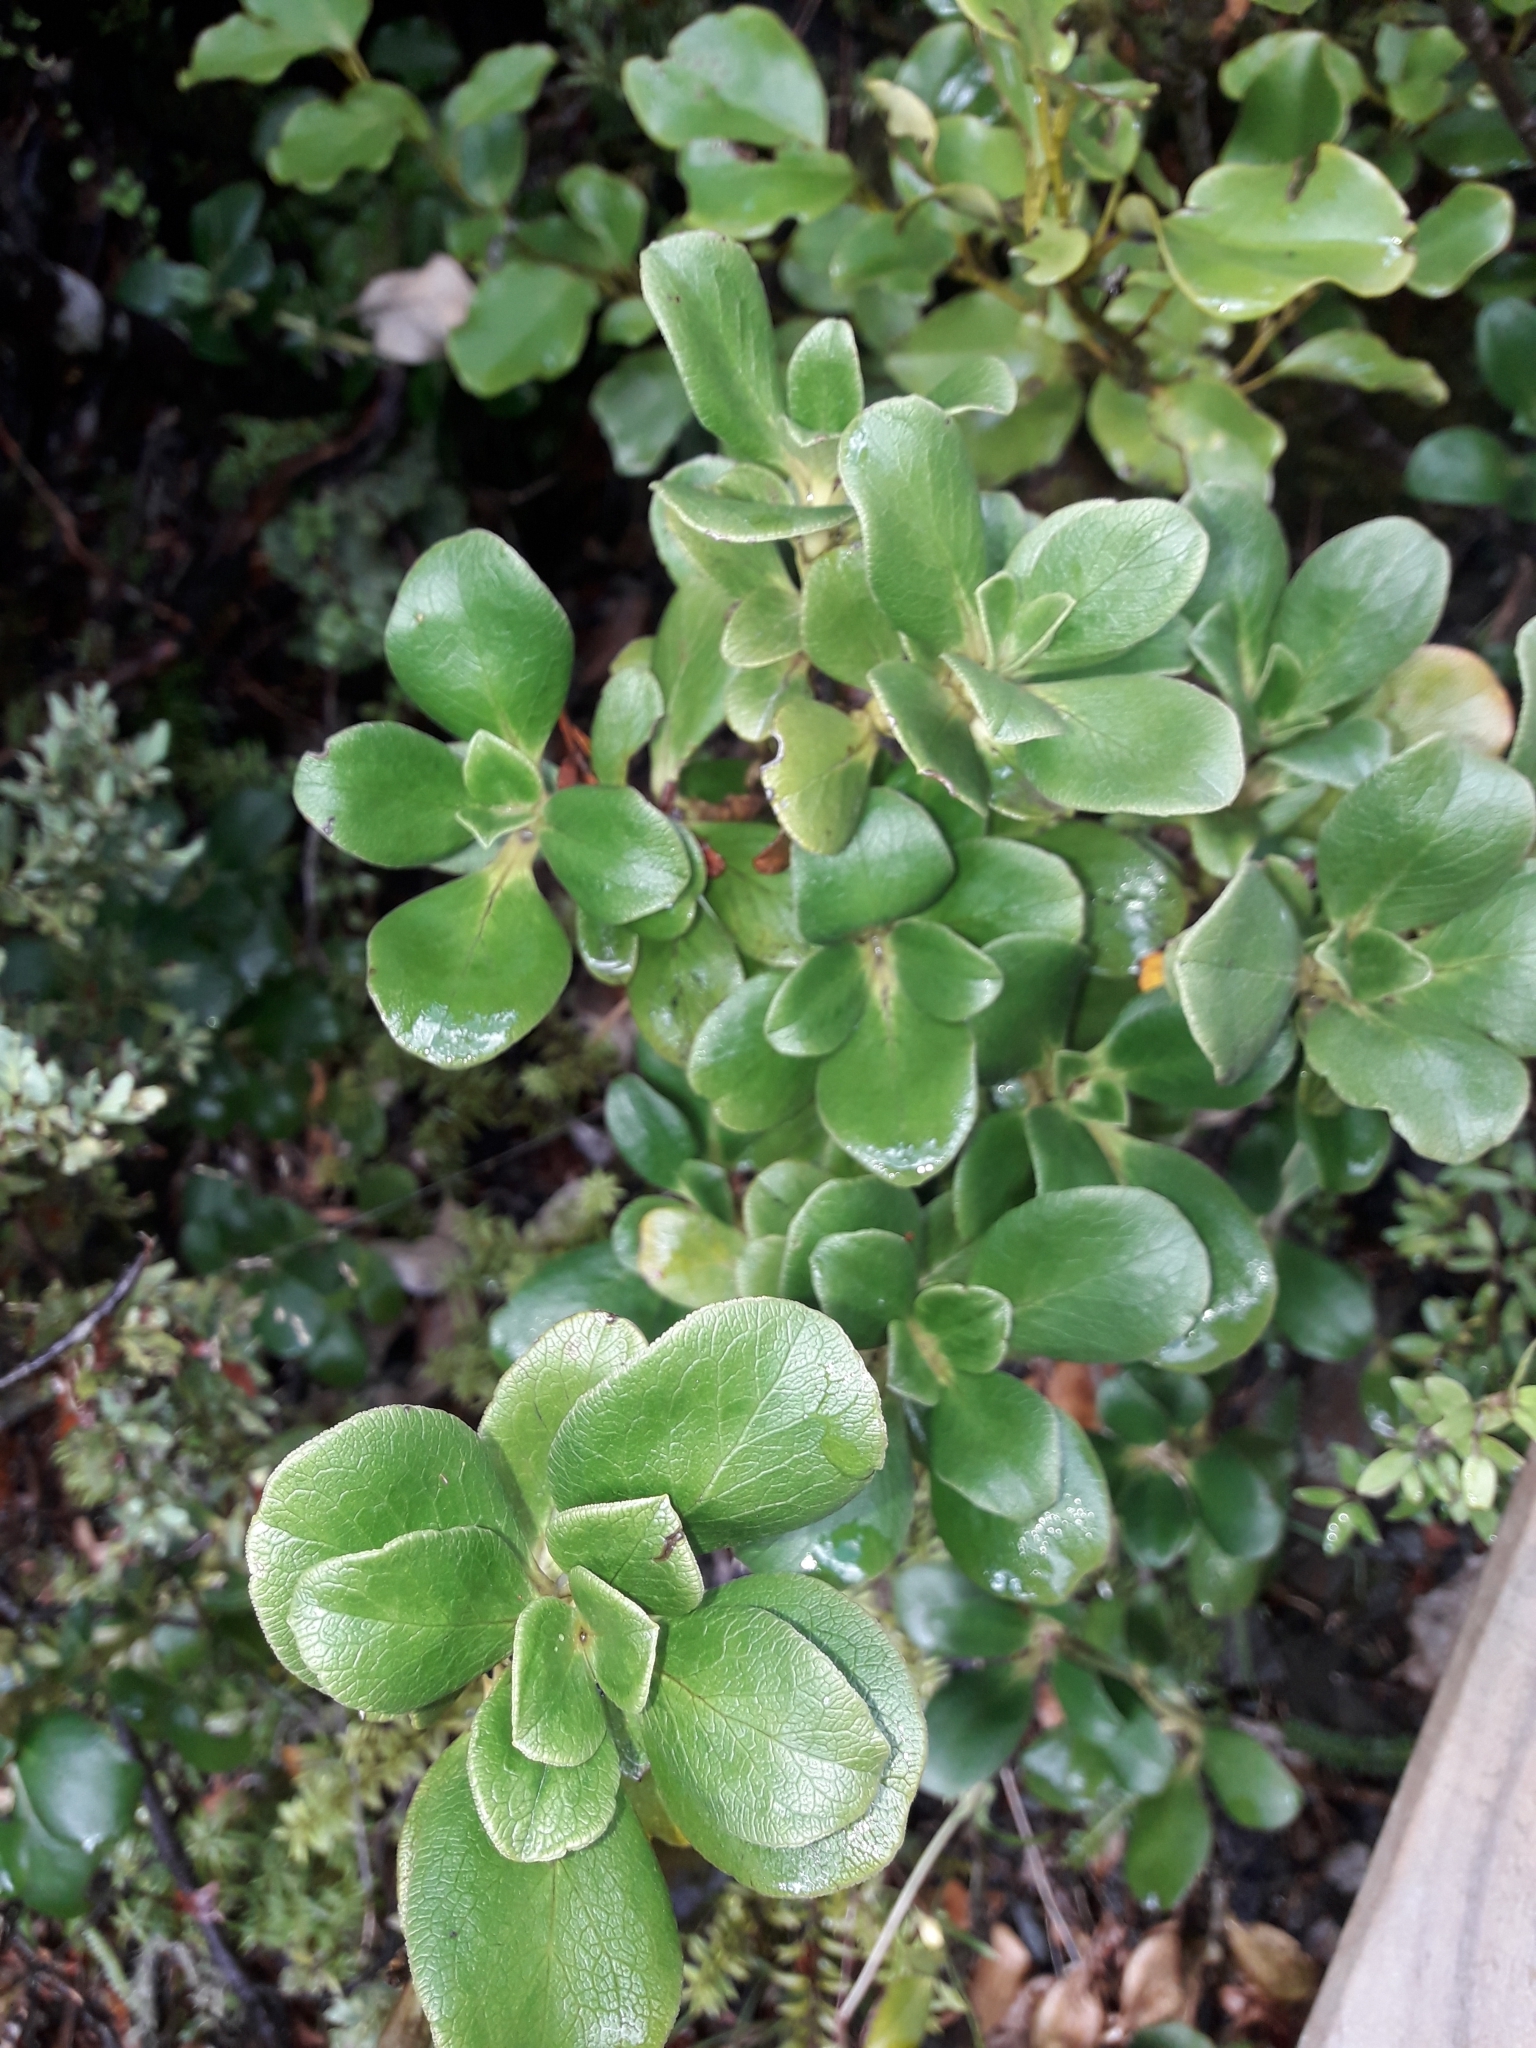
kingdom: Plantae
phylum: Tracheophyta
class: Magnoliopsida
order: Gentianales
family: Rubiaceae
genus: Coprosma
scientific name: Coprosma serrulata
